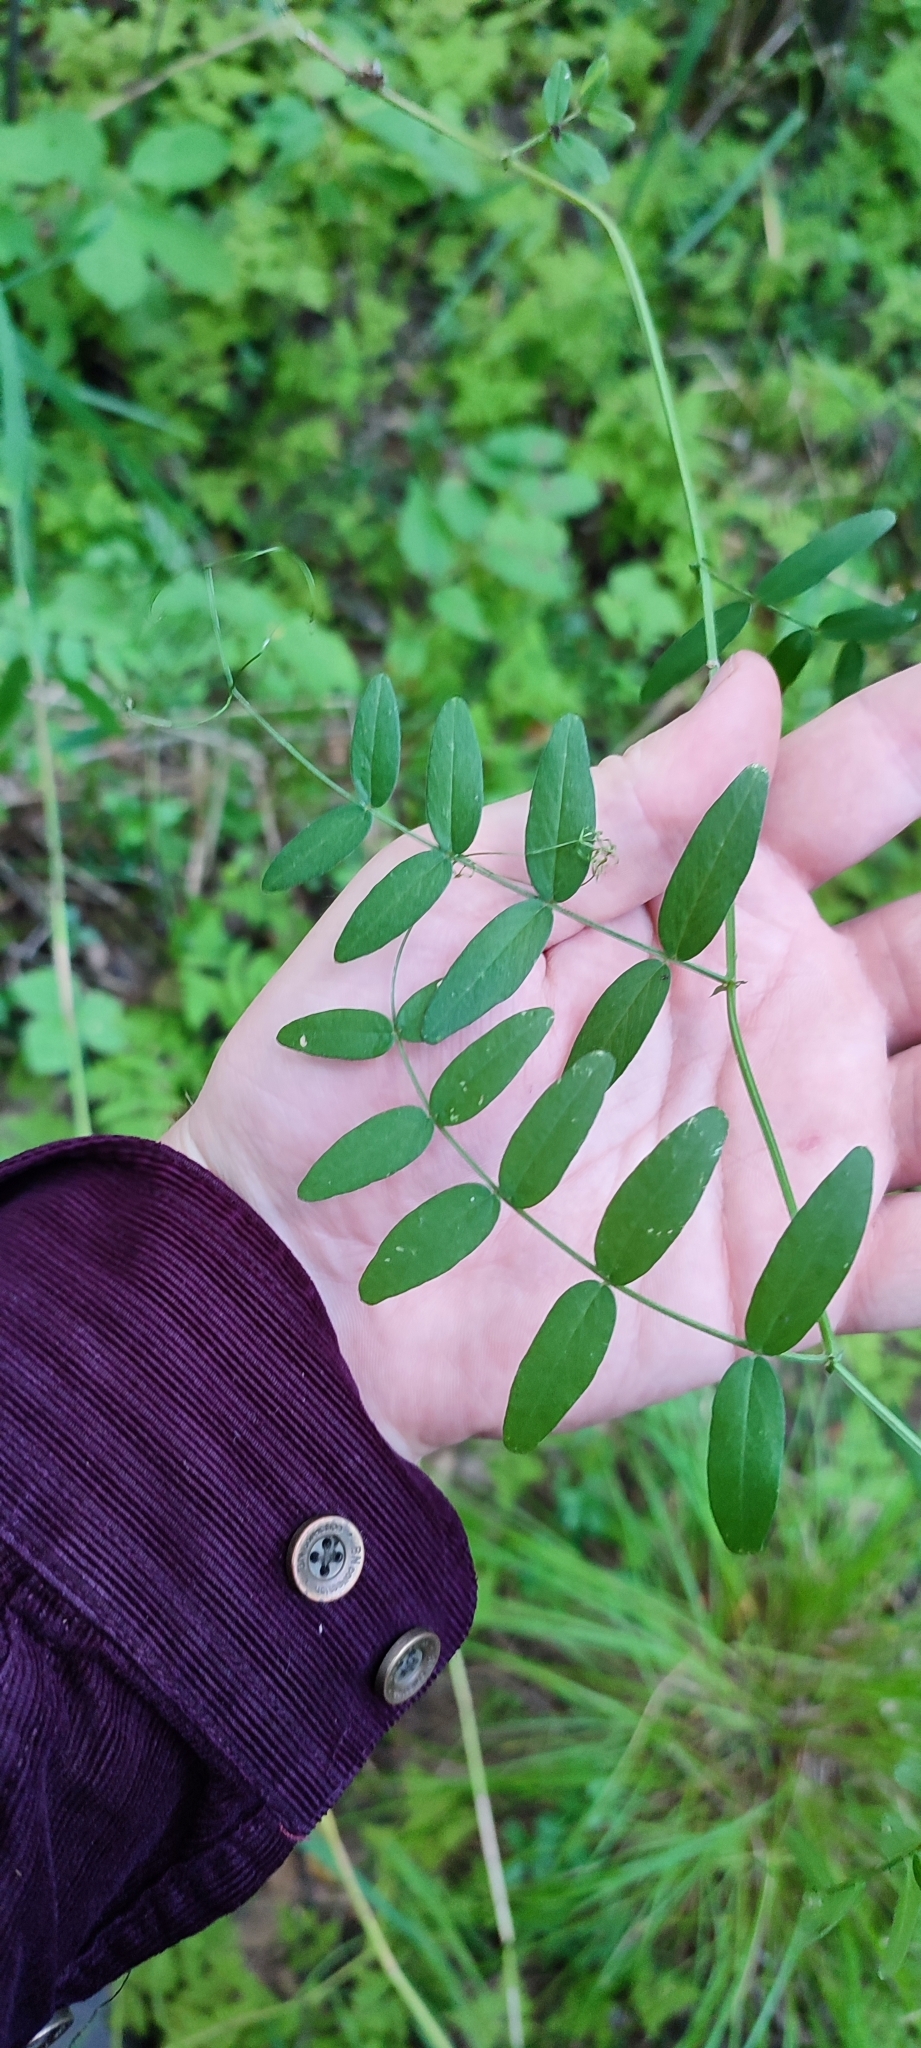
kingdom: Plantae
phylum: Tracheophyta
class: Magnoliopsida
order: Fabales
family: Fabaceae
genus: Vicia
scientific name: Vicia sepium
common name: Bush vetch
